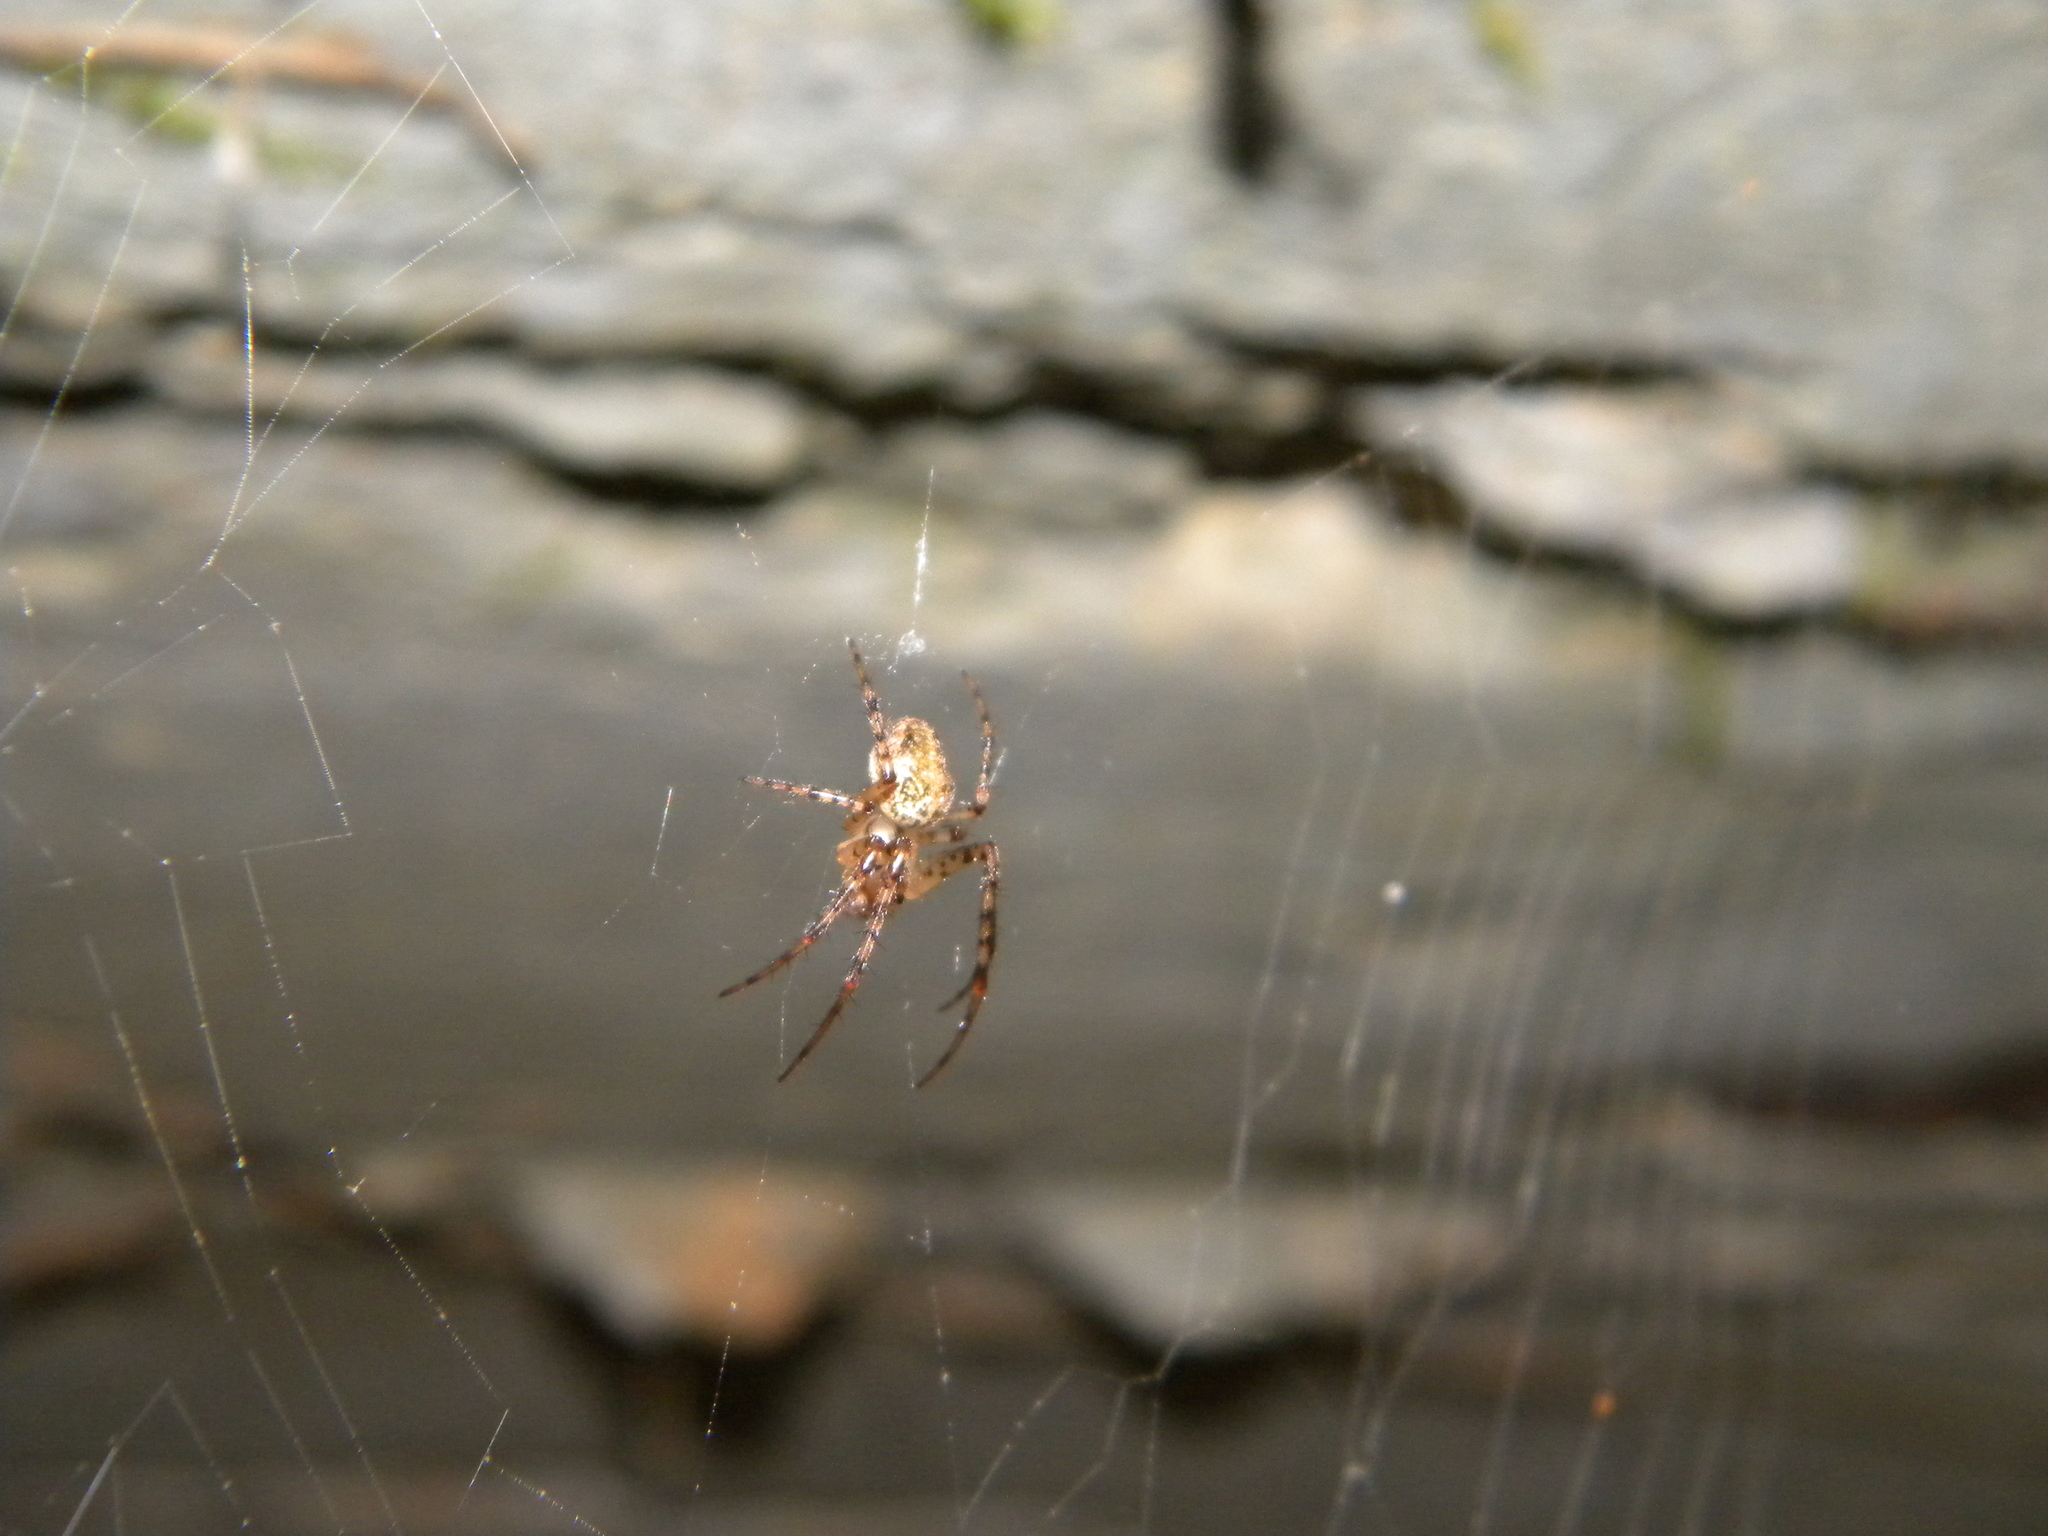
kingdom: Animalia
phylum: Arthropoda
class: Arachnida
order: Araneae
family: Tetragnathidae
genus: Metellina
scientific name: Metellina merianae
